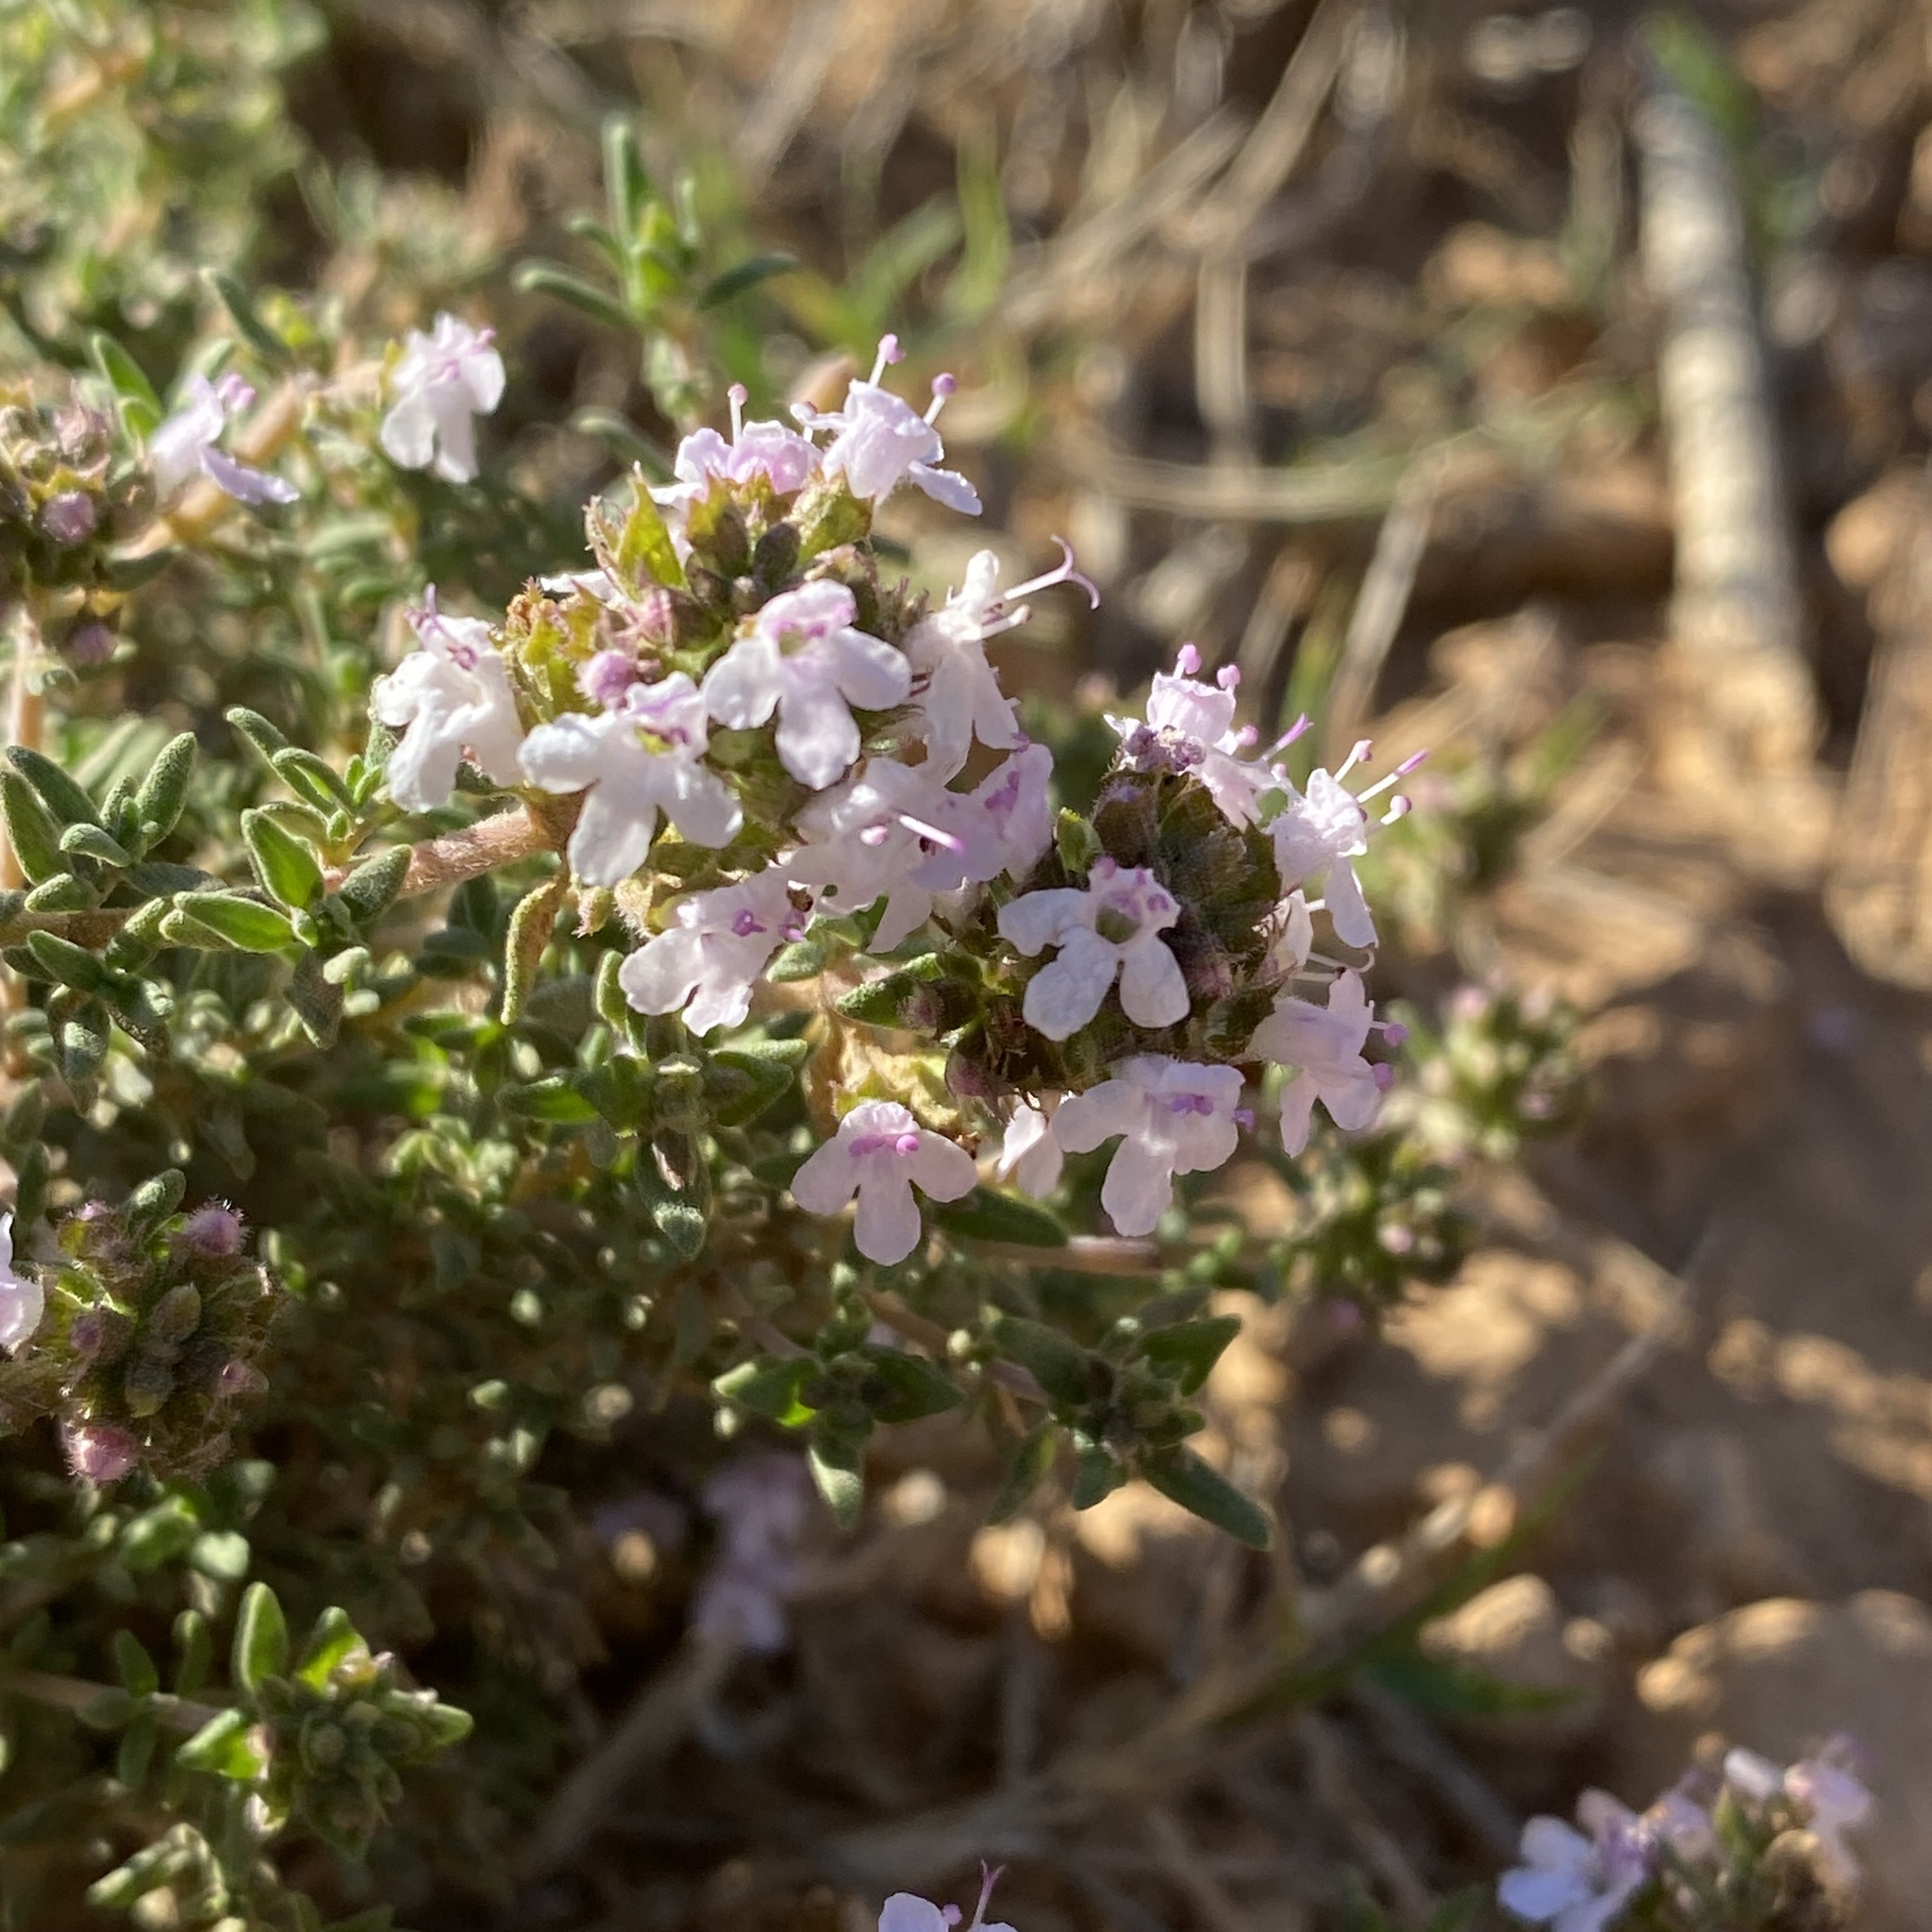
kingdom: Plantae
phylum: Tracheophyta
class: Magnoliopsida
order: Lamiales
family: Lamiaceae
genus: Thymus
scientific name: Thymus vulgaris
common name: Garden thyme
